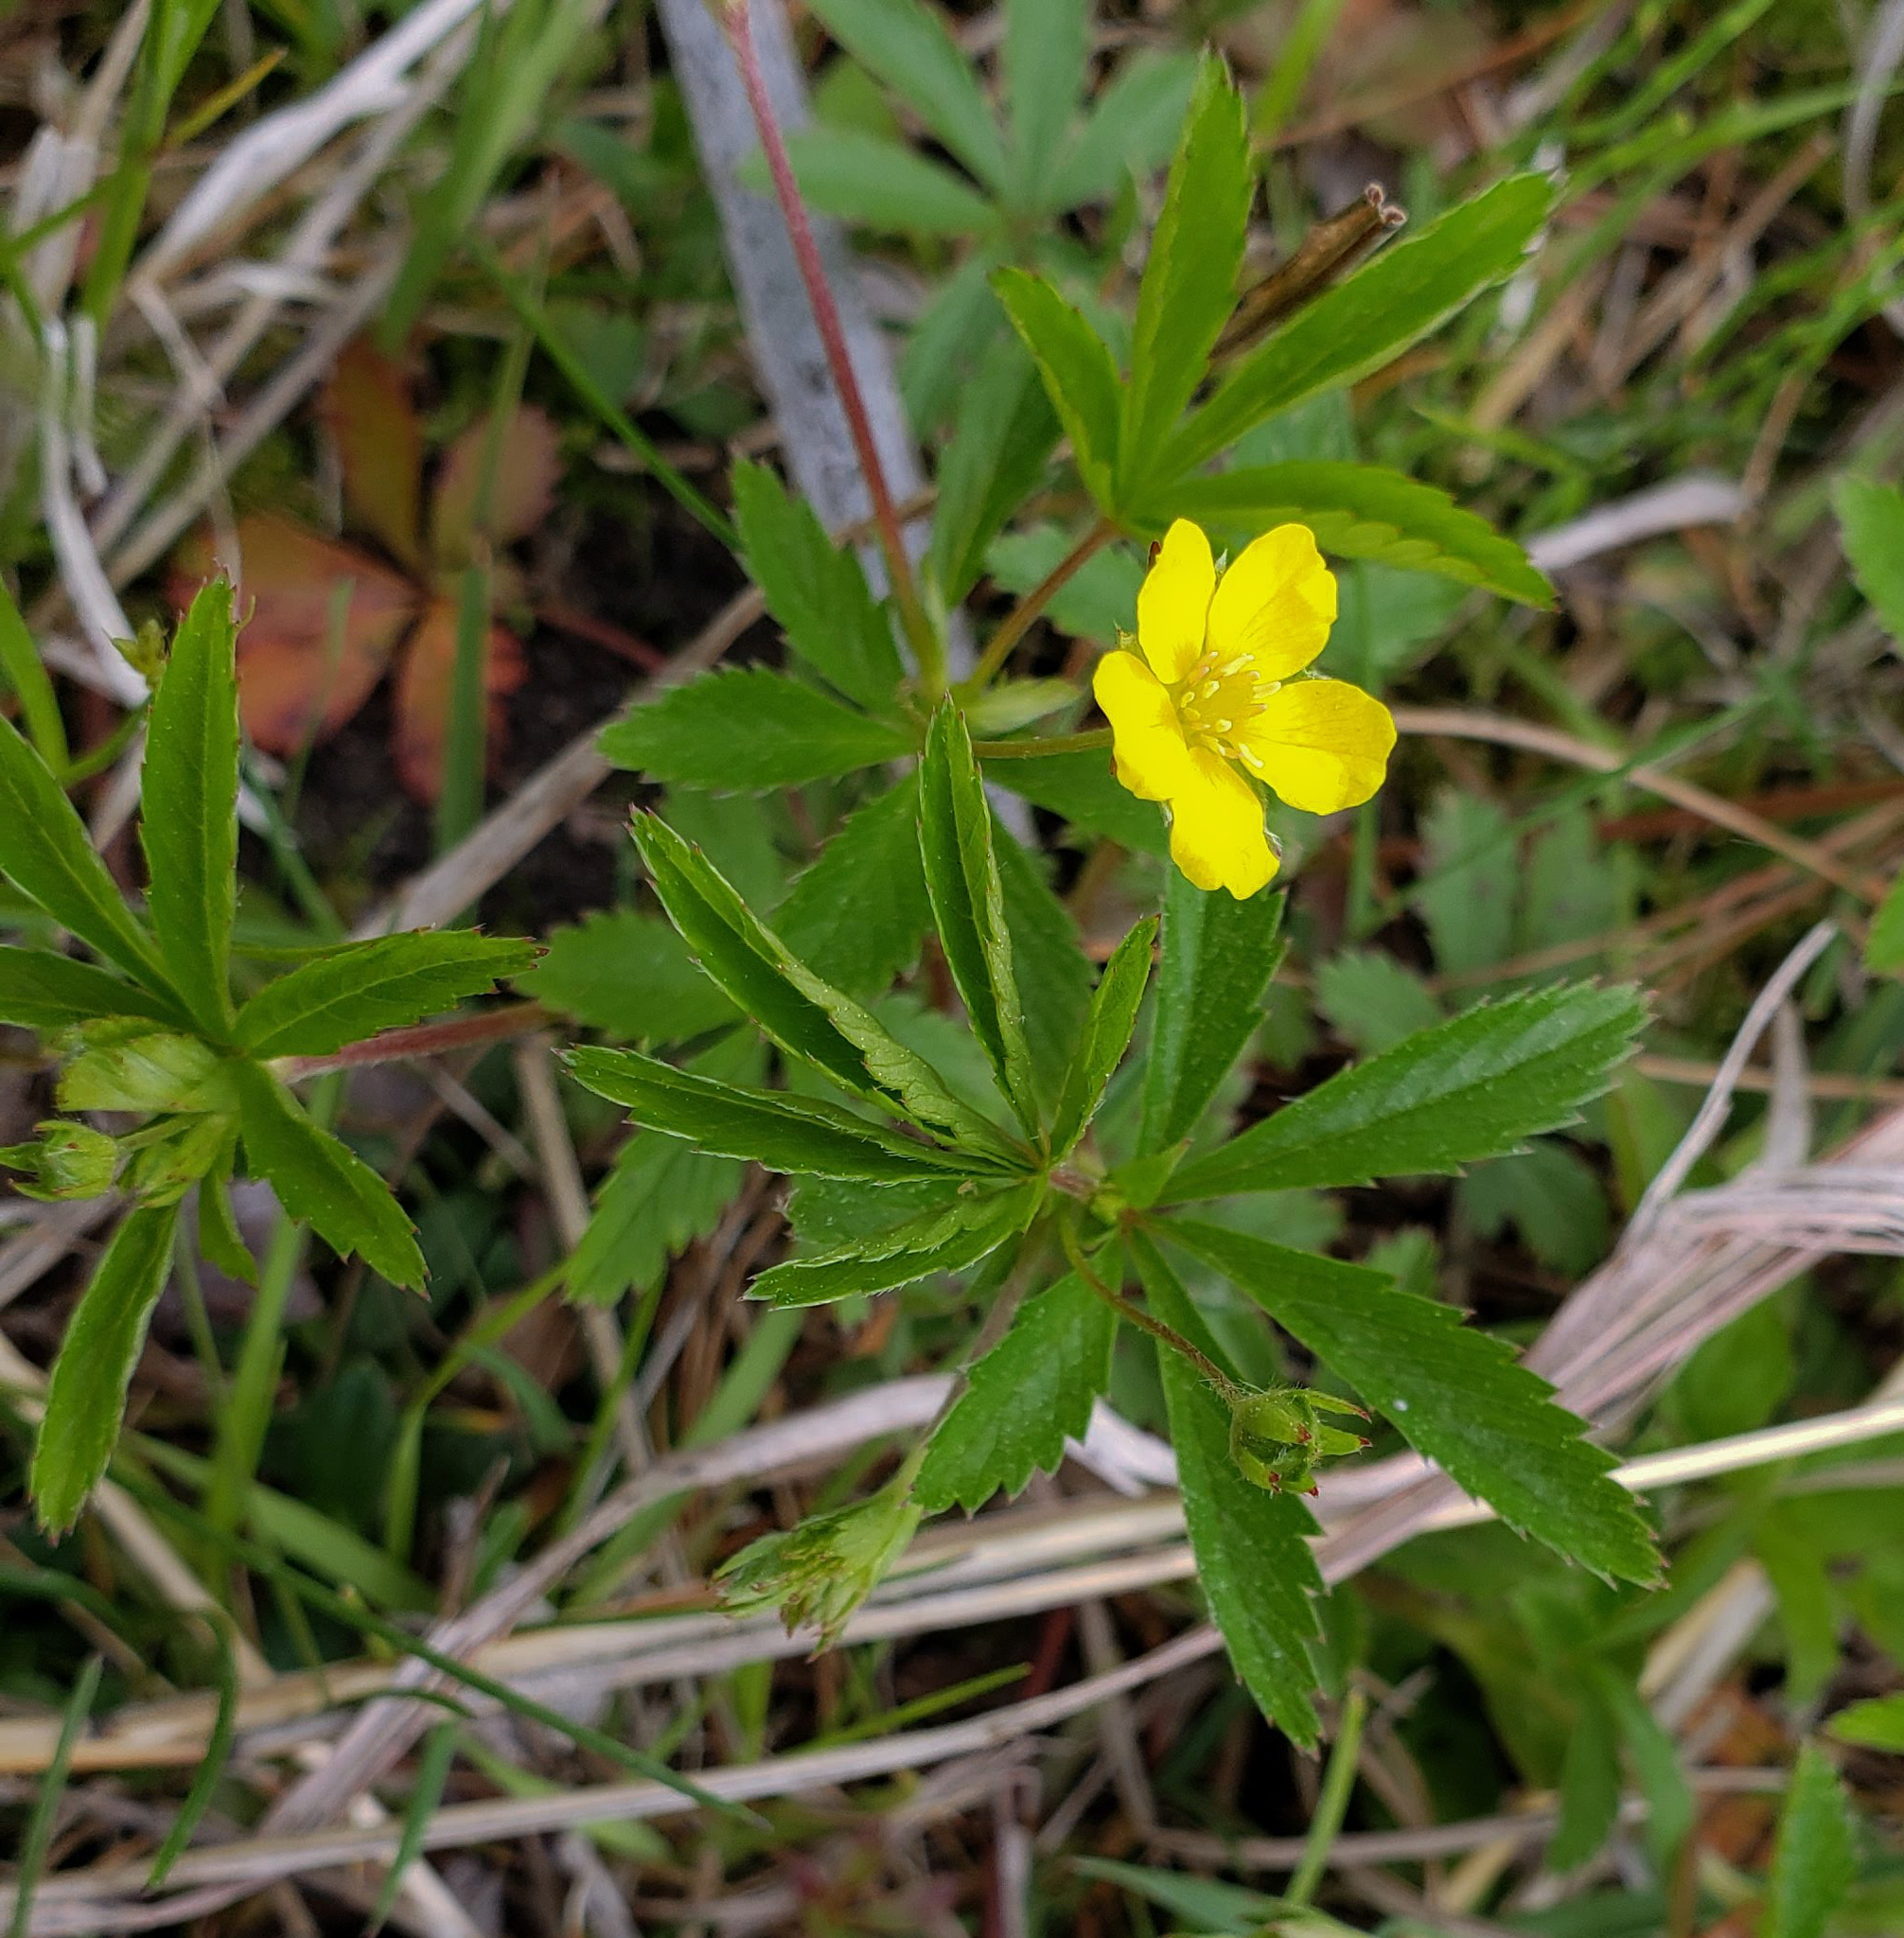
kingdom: Plantae
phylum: Tracheophyta
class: Magnoliopsida
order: Rosales
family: Rosaceae
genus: Potentilla
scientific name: Potentilla simplex
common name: Old field cinquefoil
